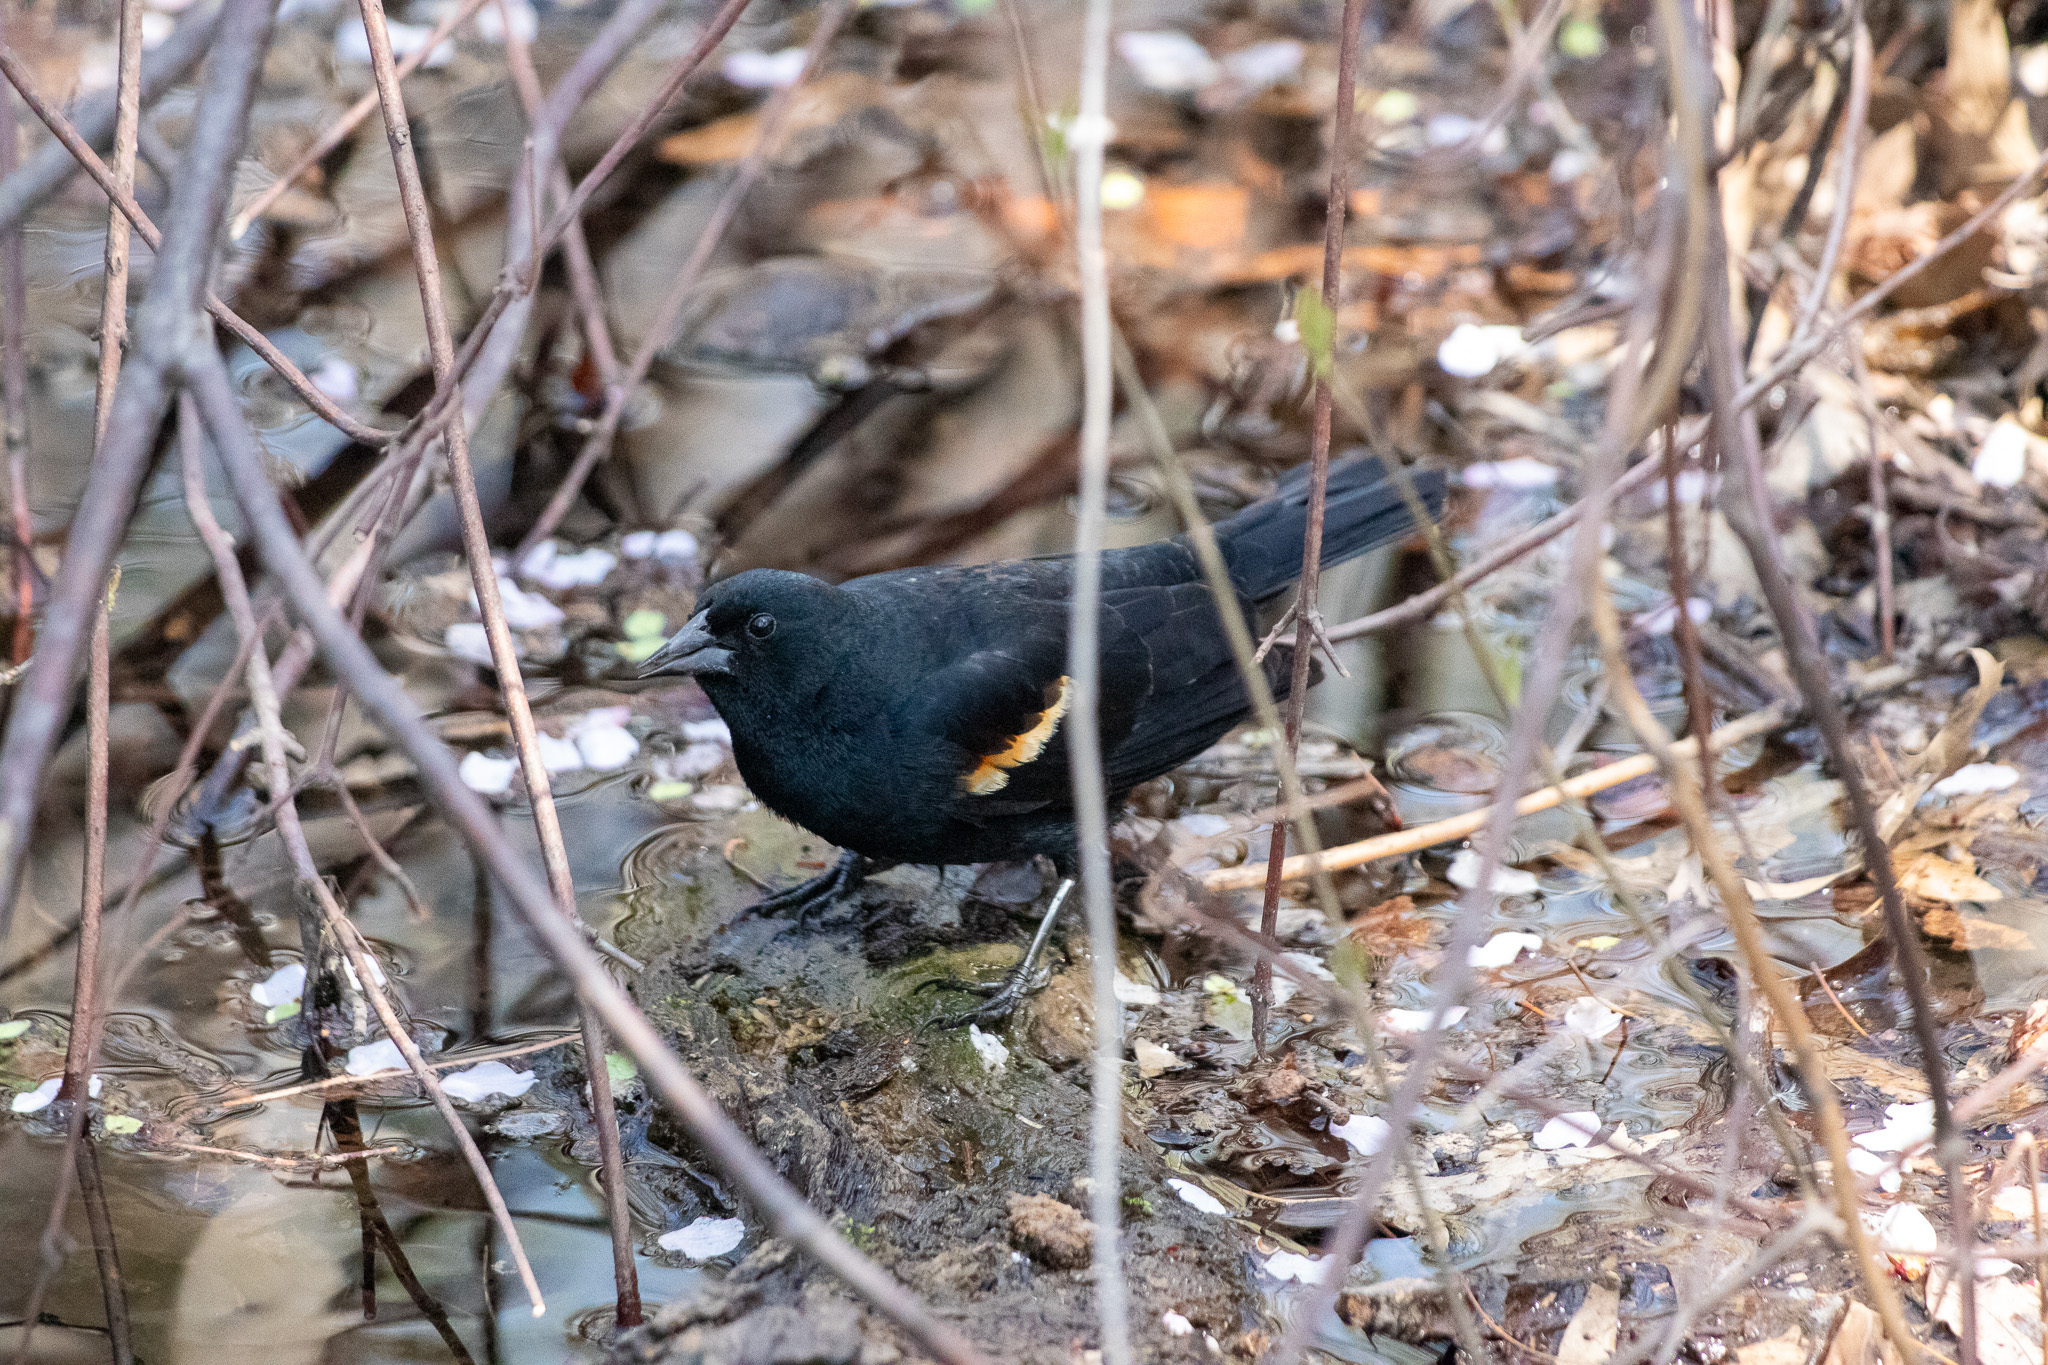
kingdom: Animalia
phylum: Chordata
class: Aves
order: Passeriformes
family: Icteridae
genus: Agelaius
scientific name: Agelaius phoeniceus
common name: Red-winged blackbird
